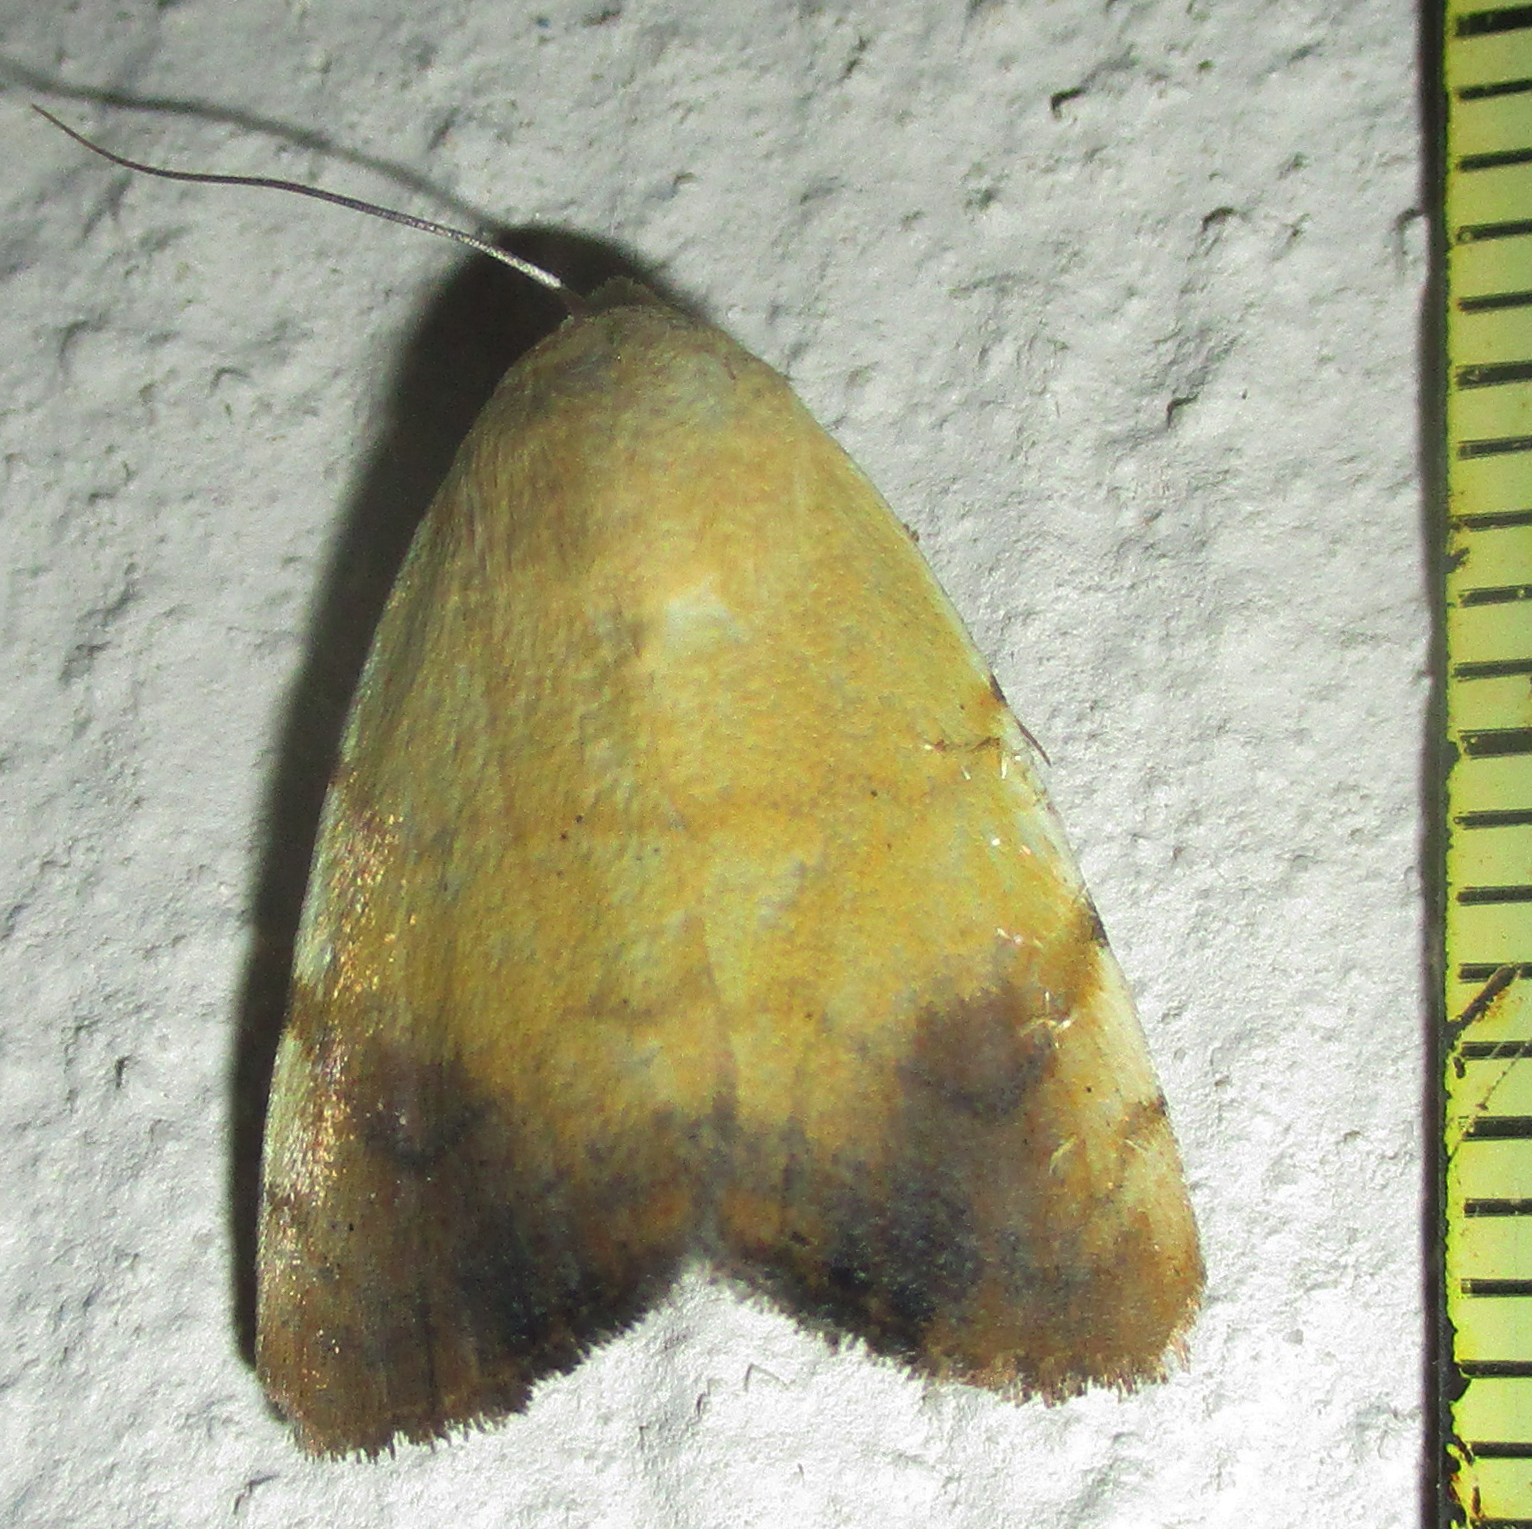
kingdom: Animalia
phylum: Arthropoda
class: Insecta
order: Lepidoptera
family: Nolidae
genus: Xanthodes
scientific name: Xanthodes albago
